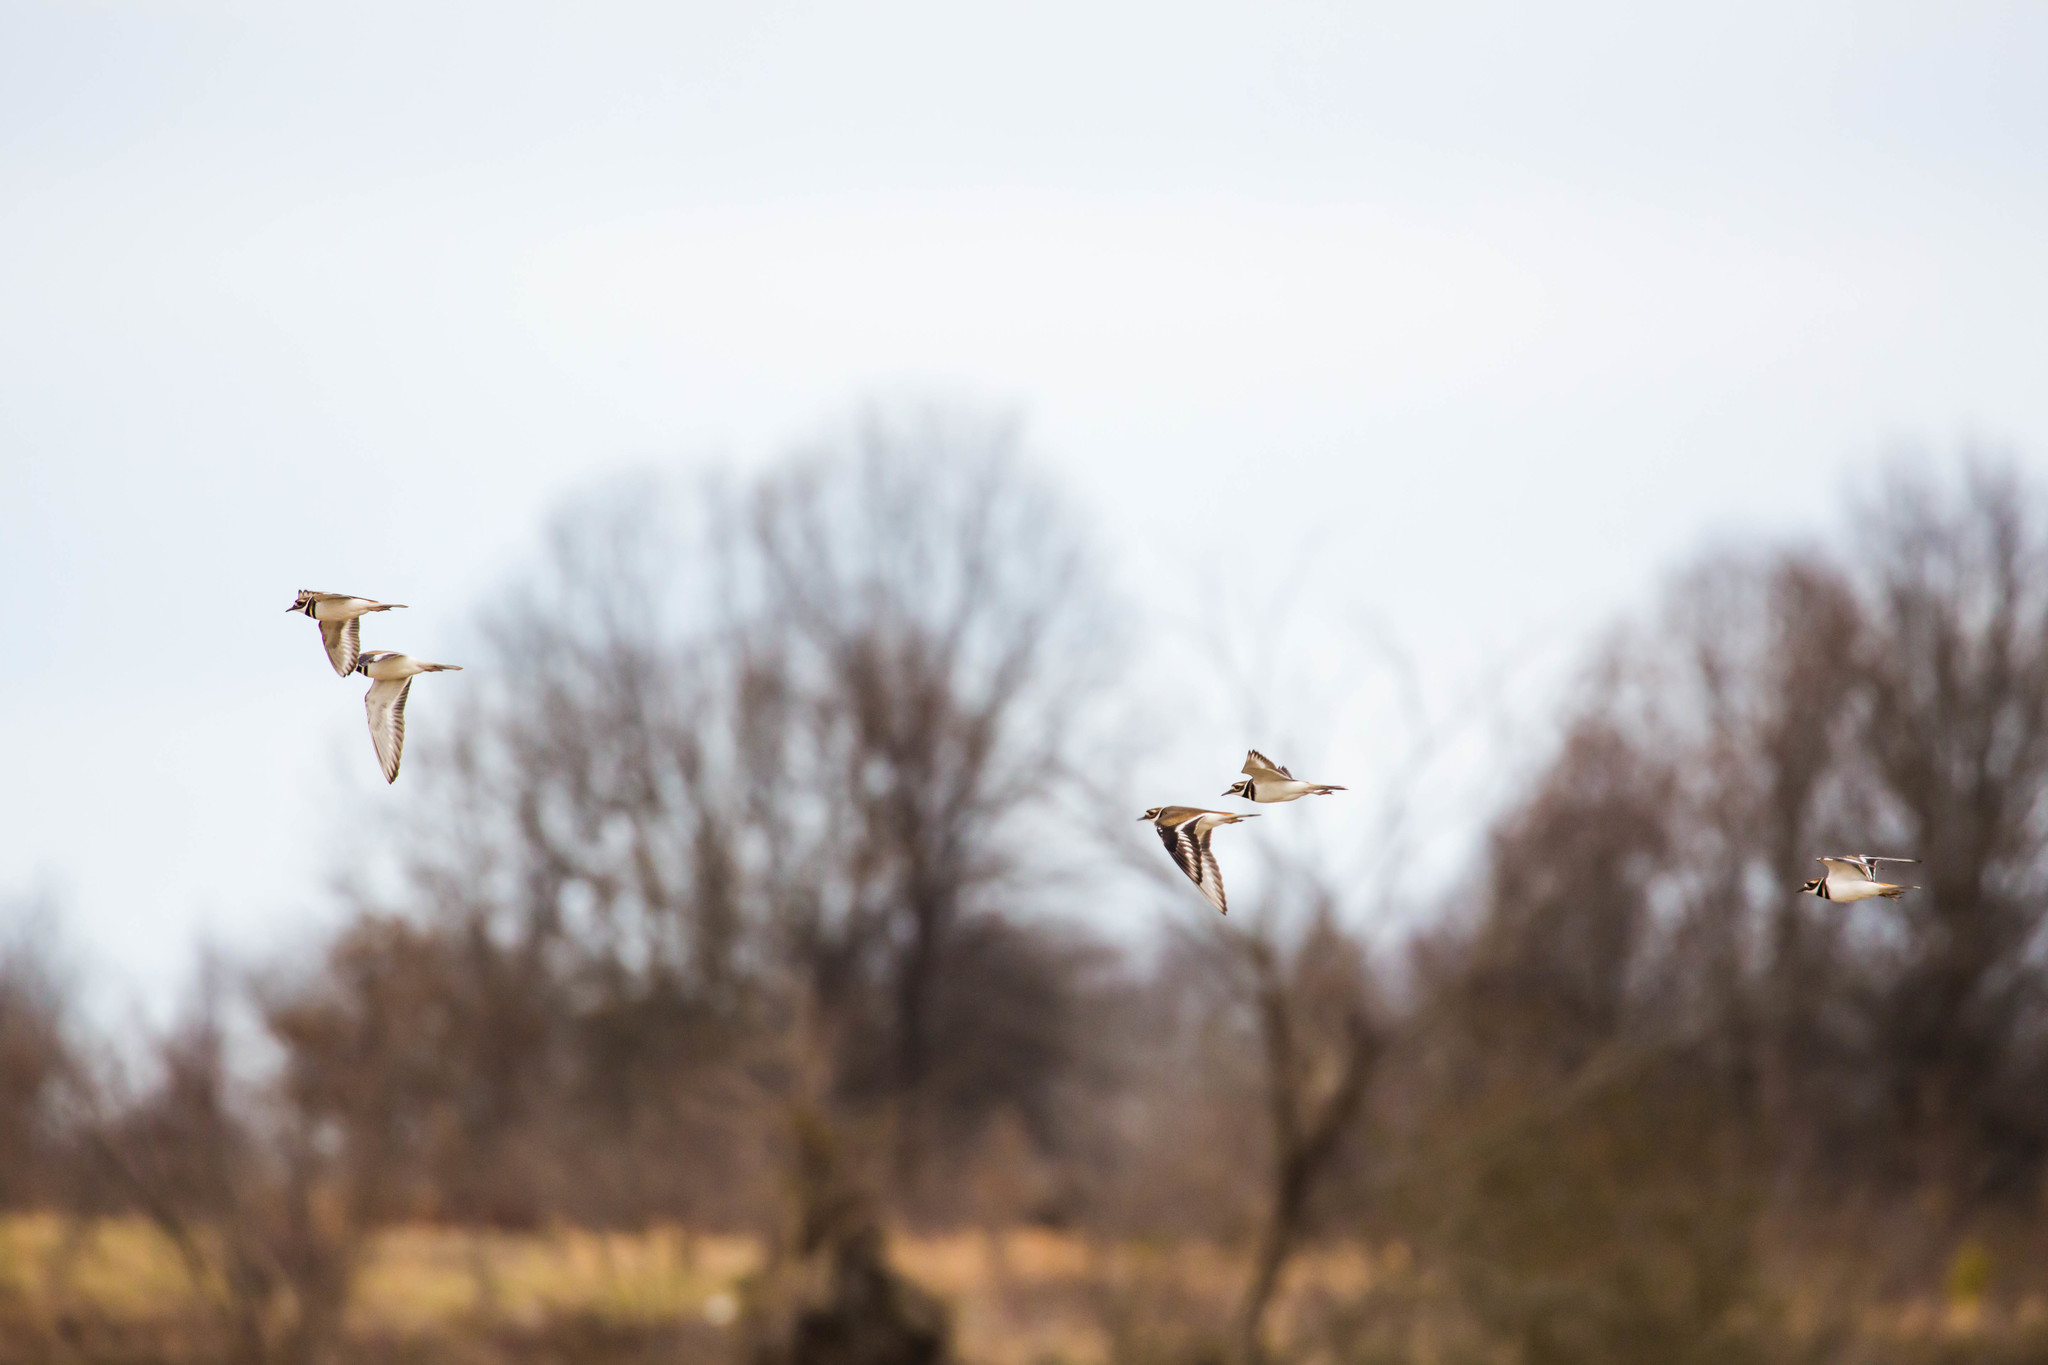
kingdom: Animalia
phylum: Chordata
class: Aves
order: Charadriiformes
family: Charadriidae
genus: Charadrius
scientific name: Charadrius vociferus
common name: Killdeer
